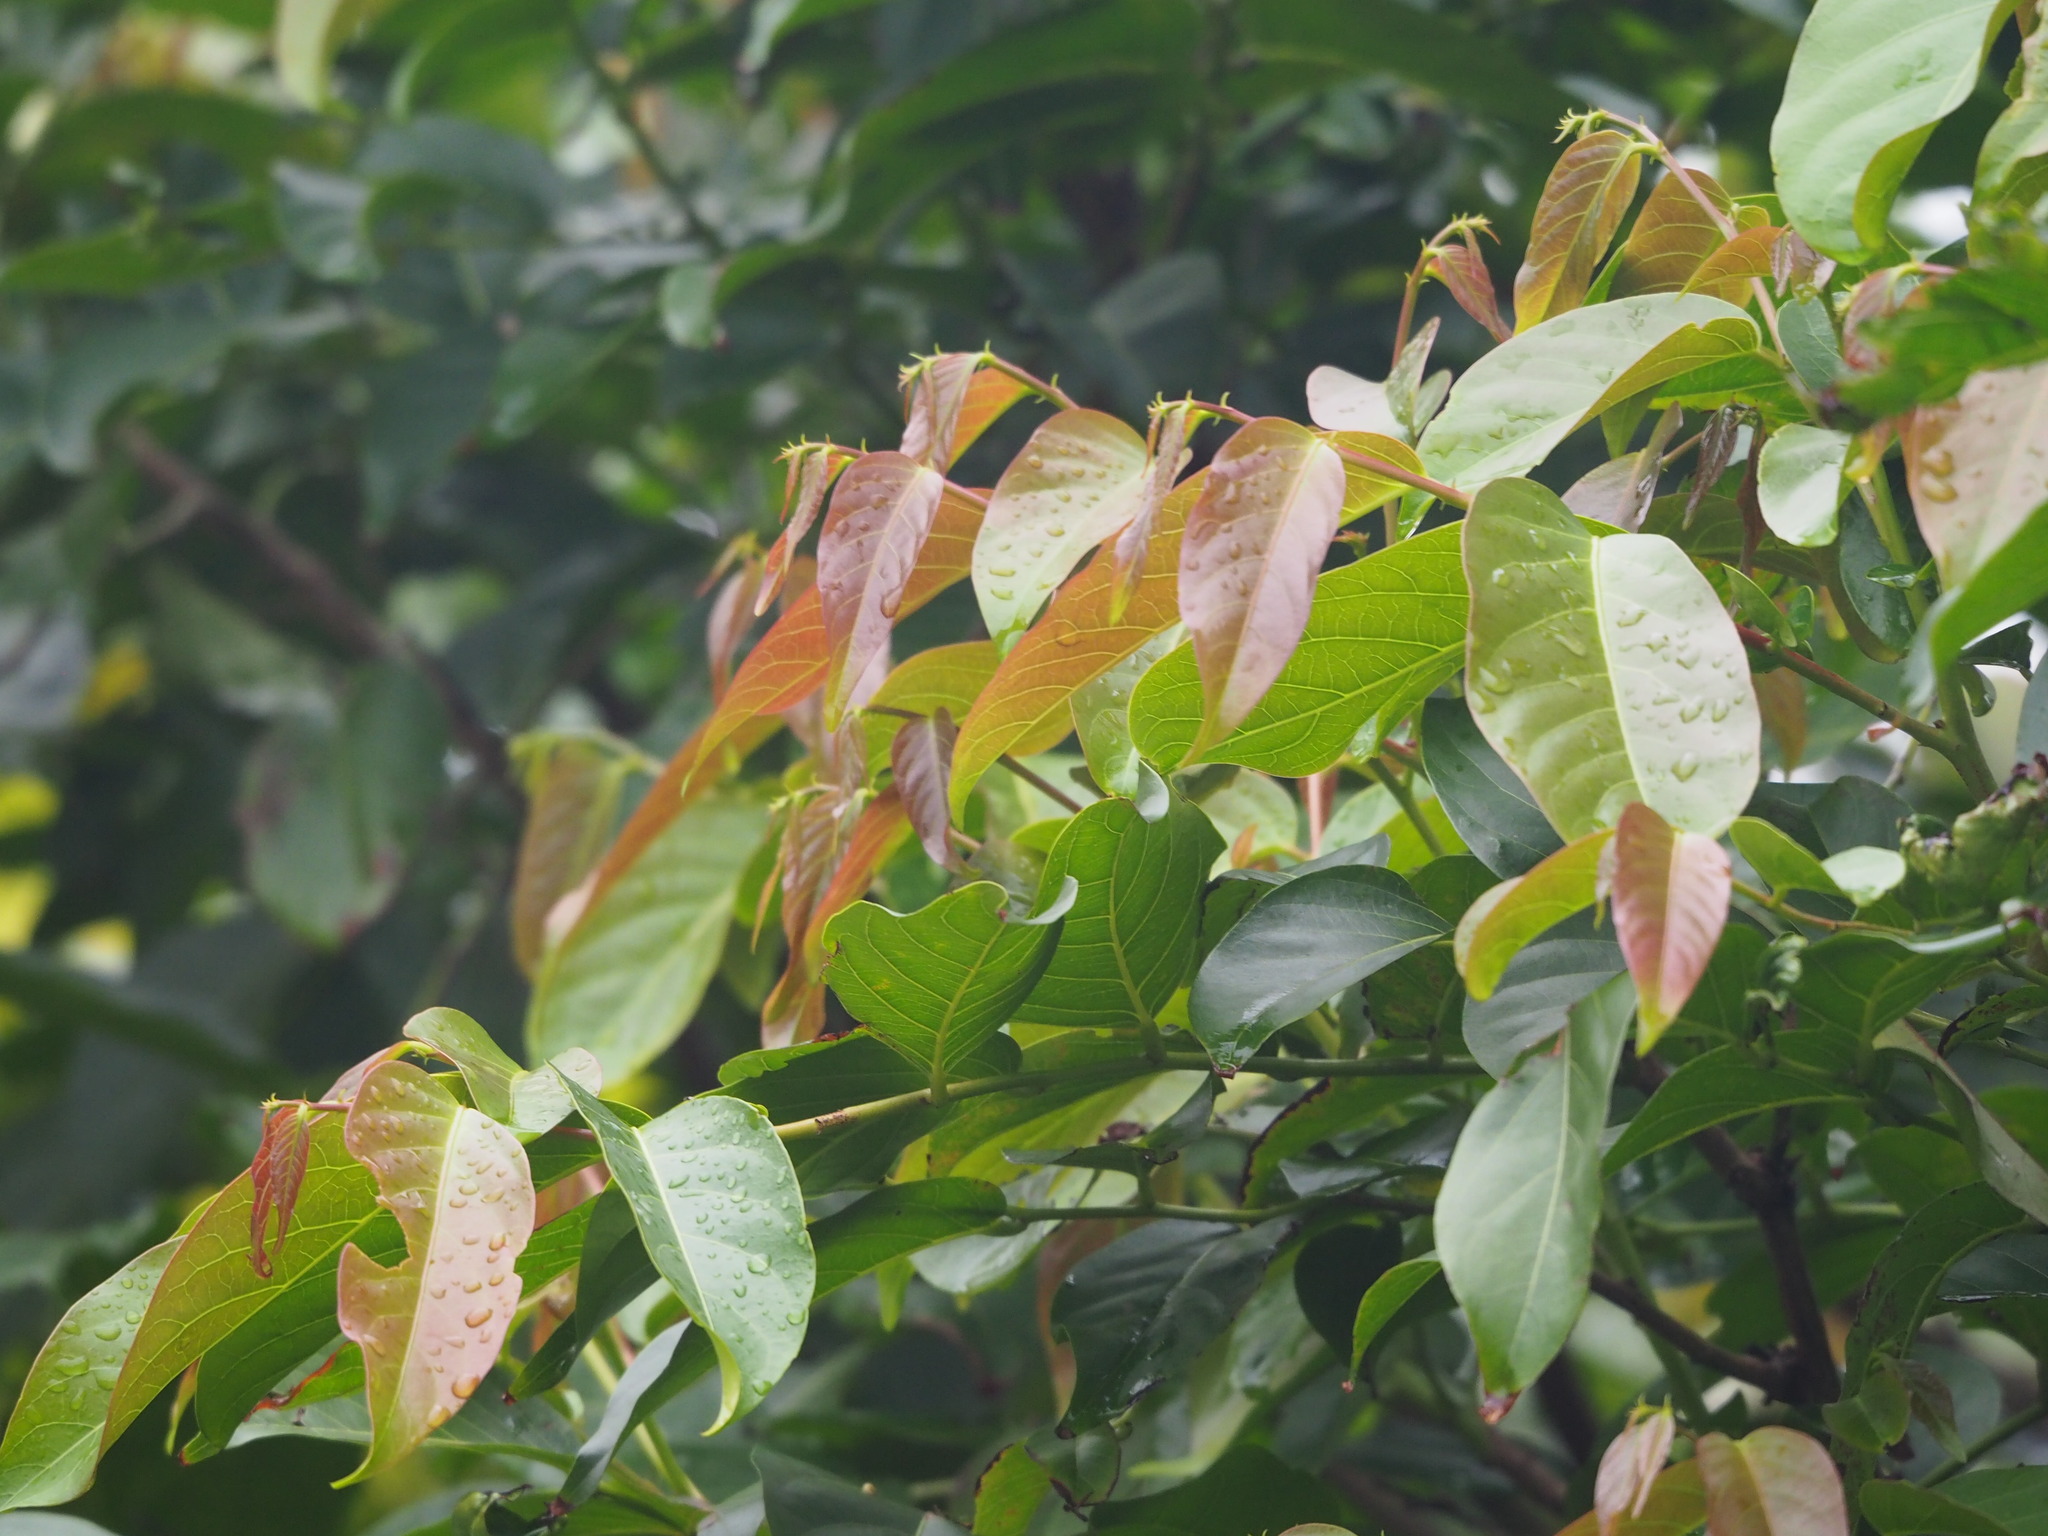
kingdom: Plantae
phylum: Tracheophyta
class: Magnoliopsida
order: Malpighiales
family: Phyllanthaceae
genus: Glochidion
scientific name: Glochidion zeylanicum
